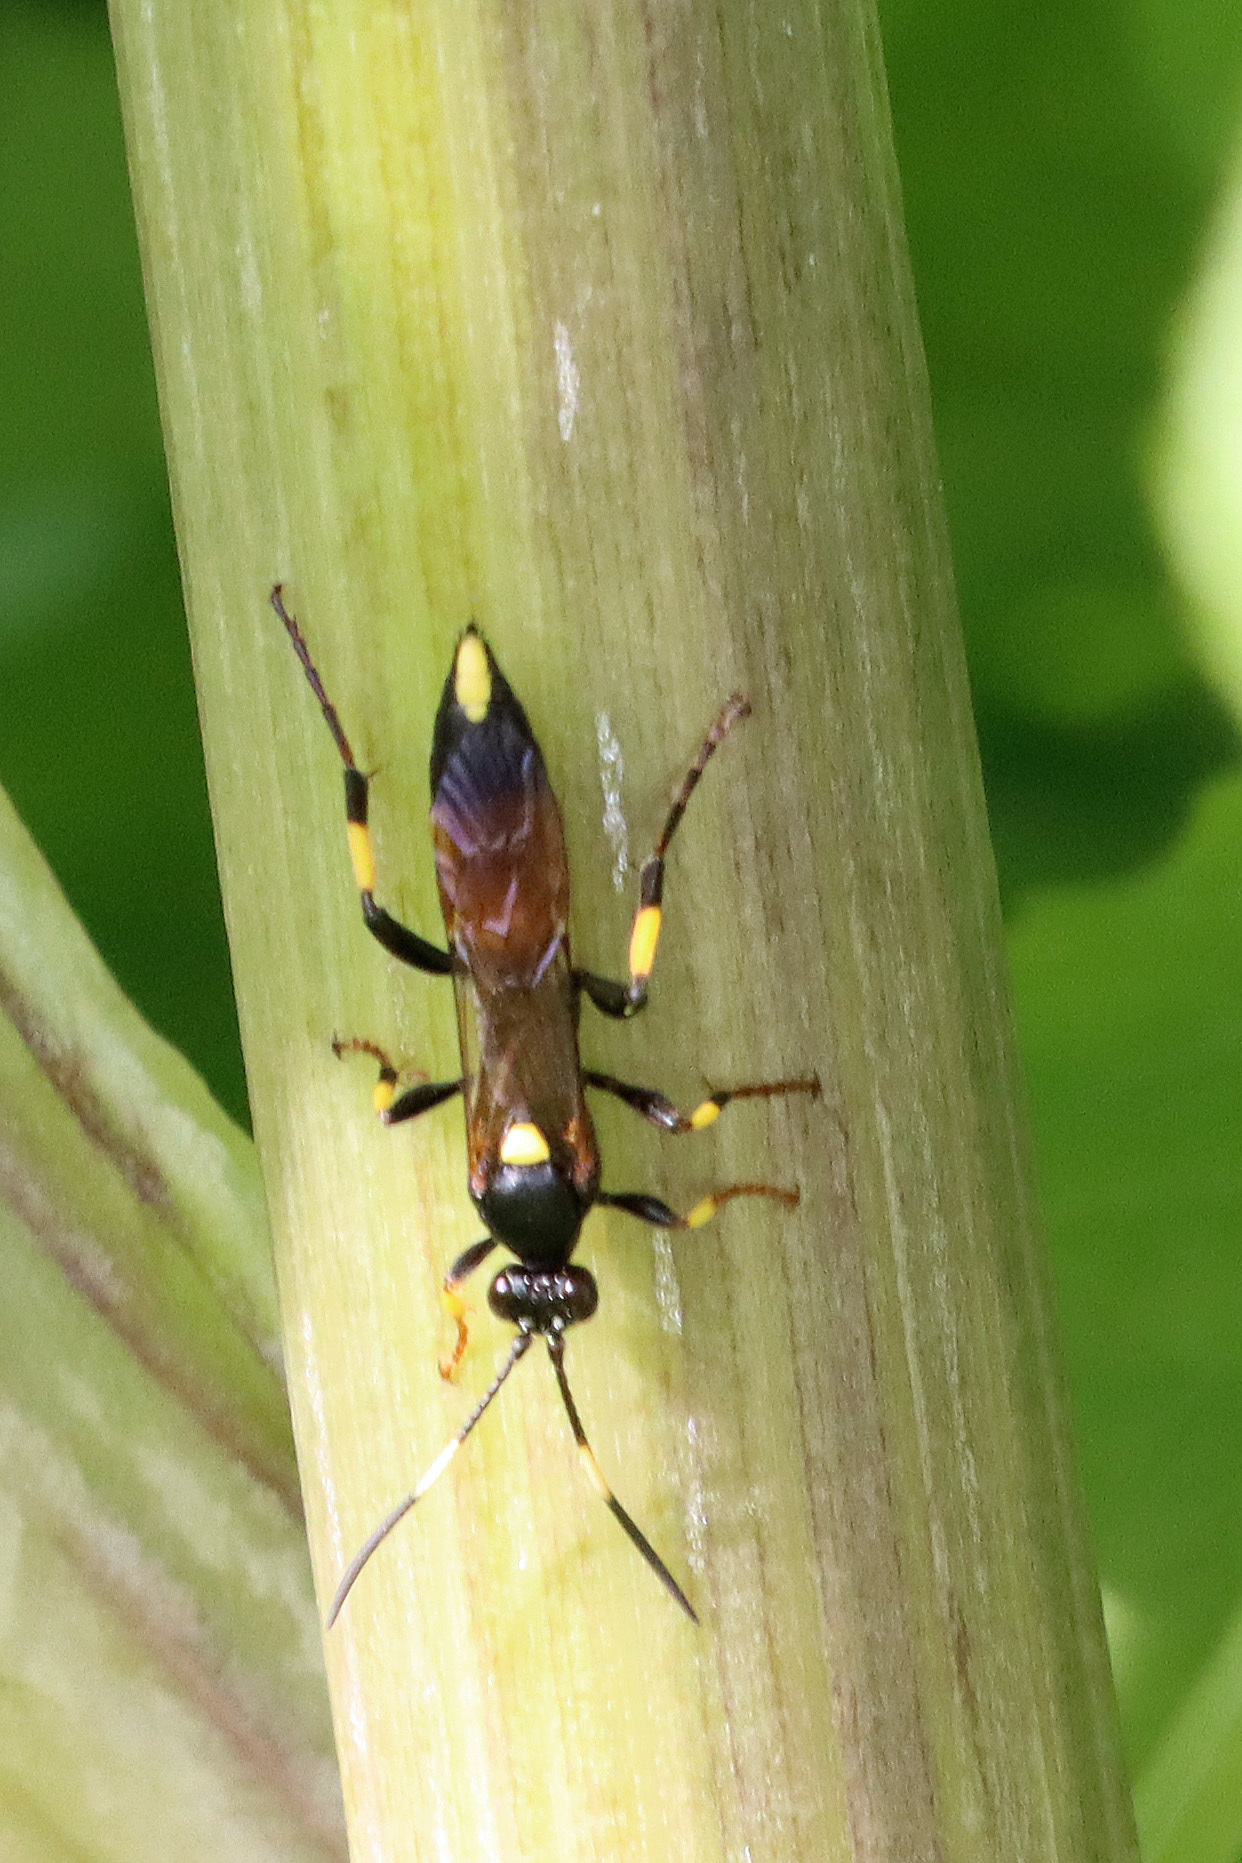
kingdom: Animalia
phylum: Arthropoda
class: Insecta
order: Hymenoptera
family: Ichneumonidae
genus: Ichneumon
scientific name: Ichneumon stramentor
